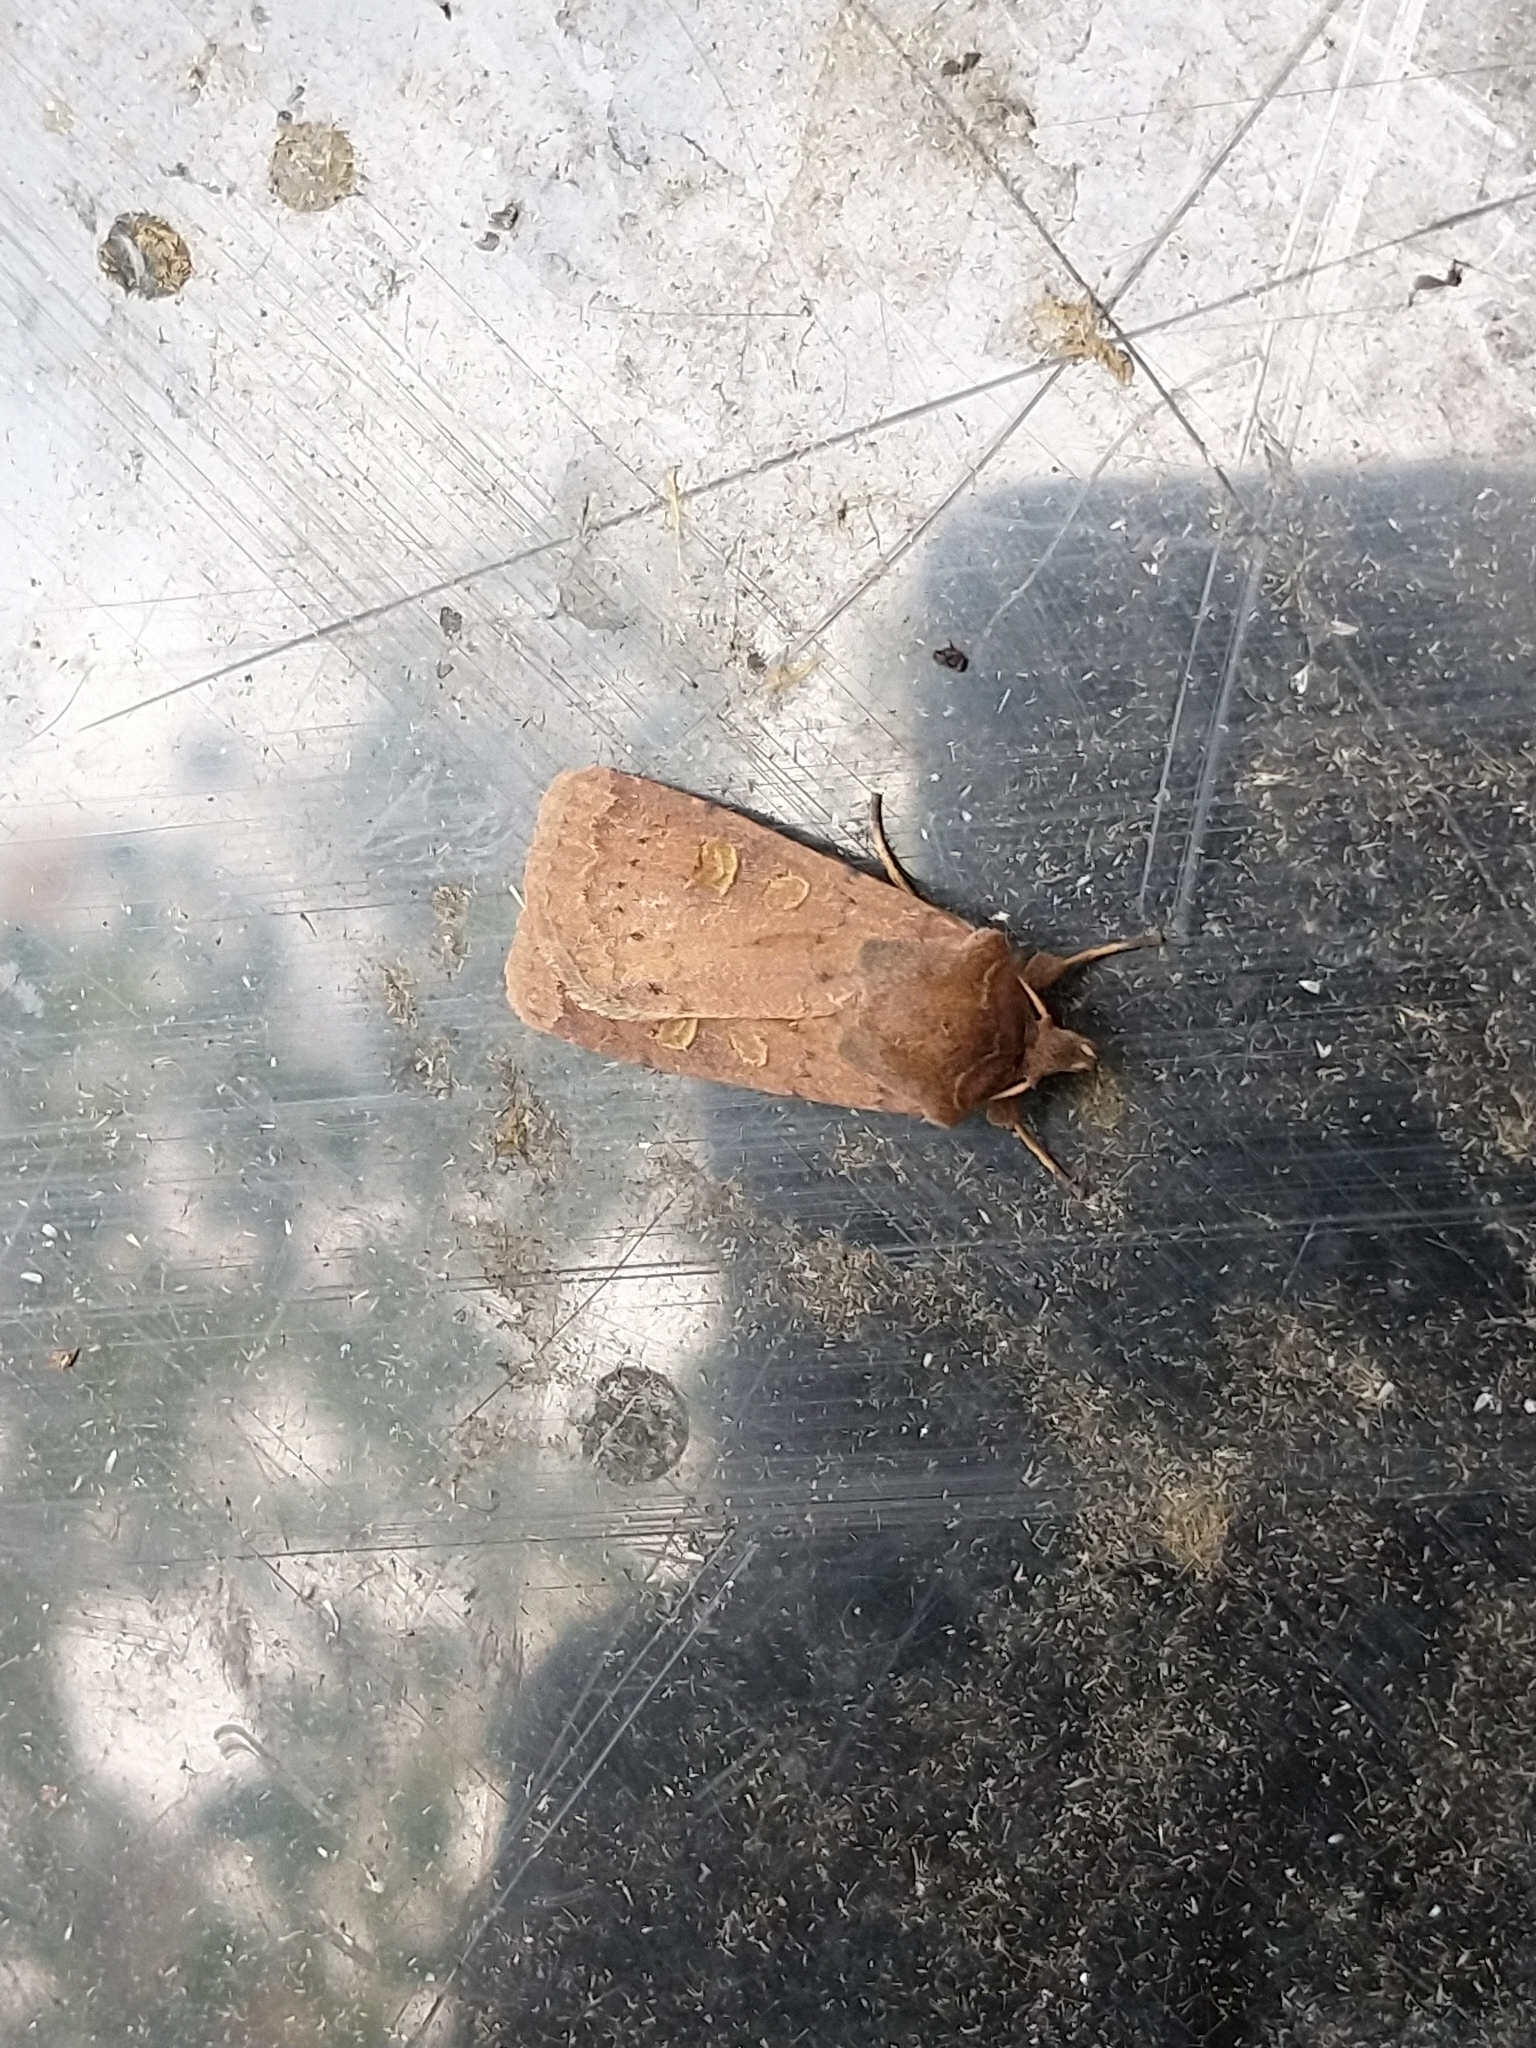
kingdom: Animalia
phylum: Arthropoda
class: Insecta
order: Lepidoptera
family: Noctuidae
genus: Xestia
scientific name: Xestia xanthographa
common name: Square-spot rustic
